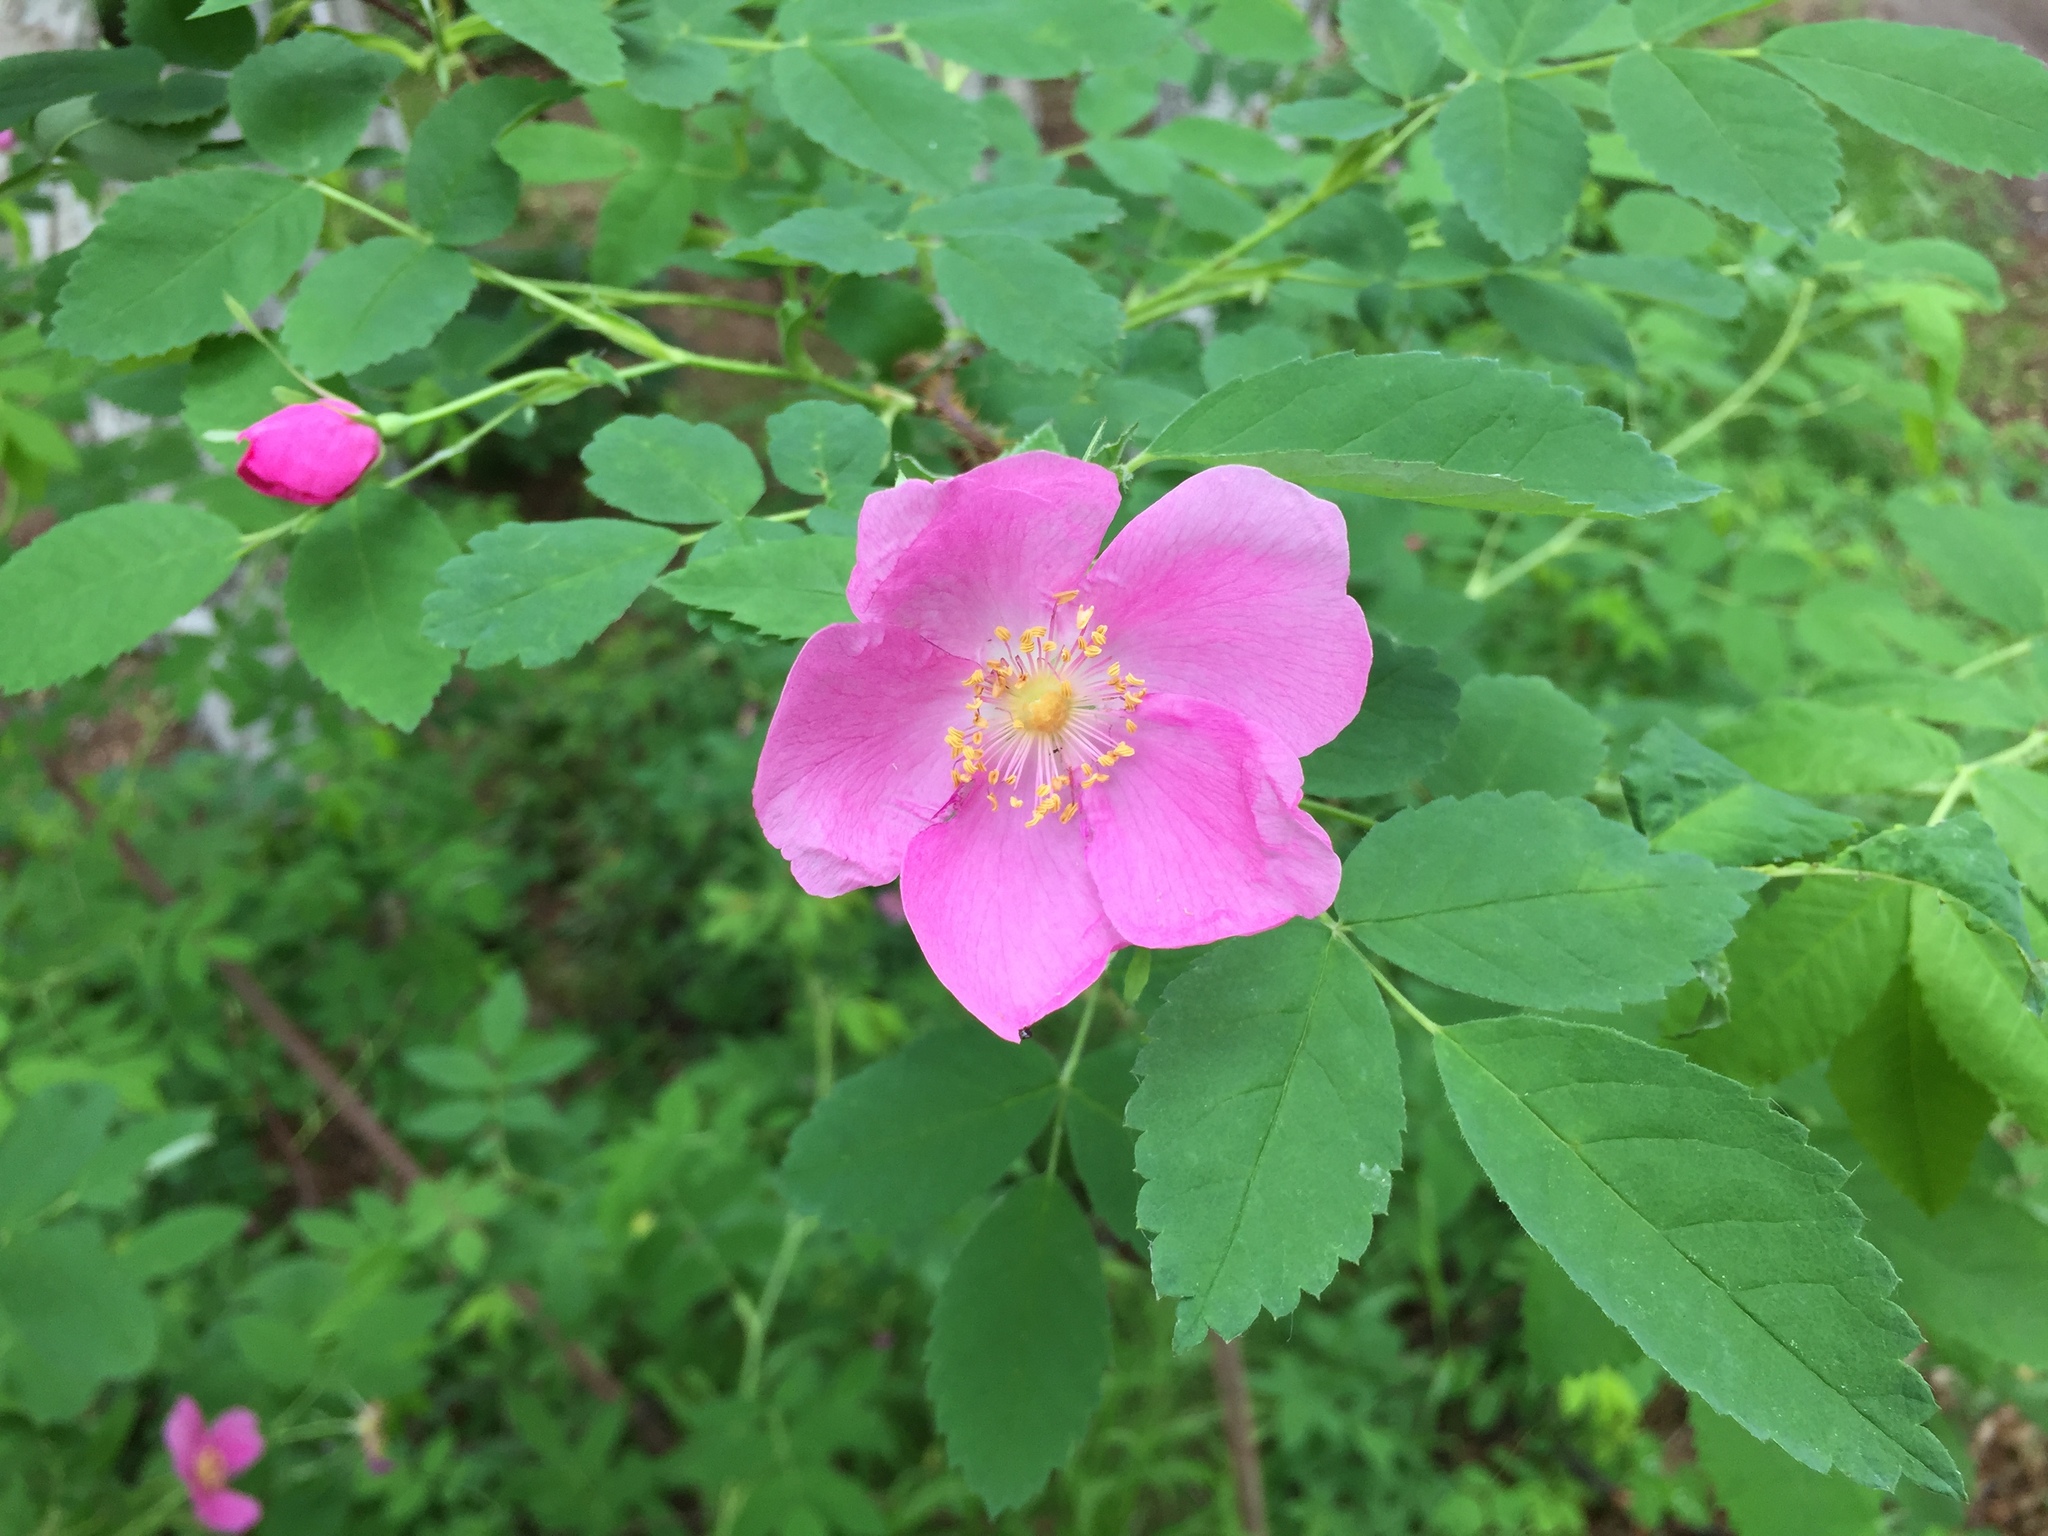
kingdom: Plantae
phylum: Tracheophyta
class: Magnoliopsida
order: Rosales
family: Rosaceae
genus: Rosa
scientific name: Rosa acicularis
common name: Prickly rose
